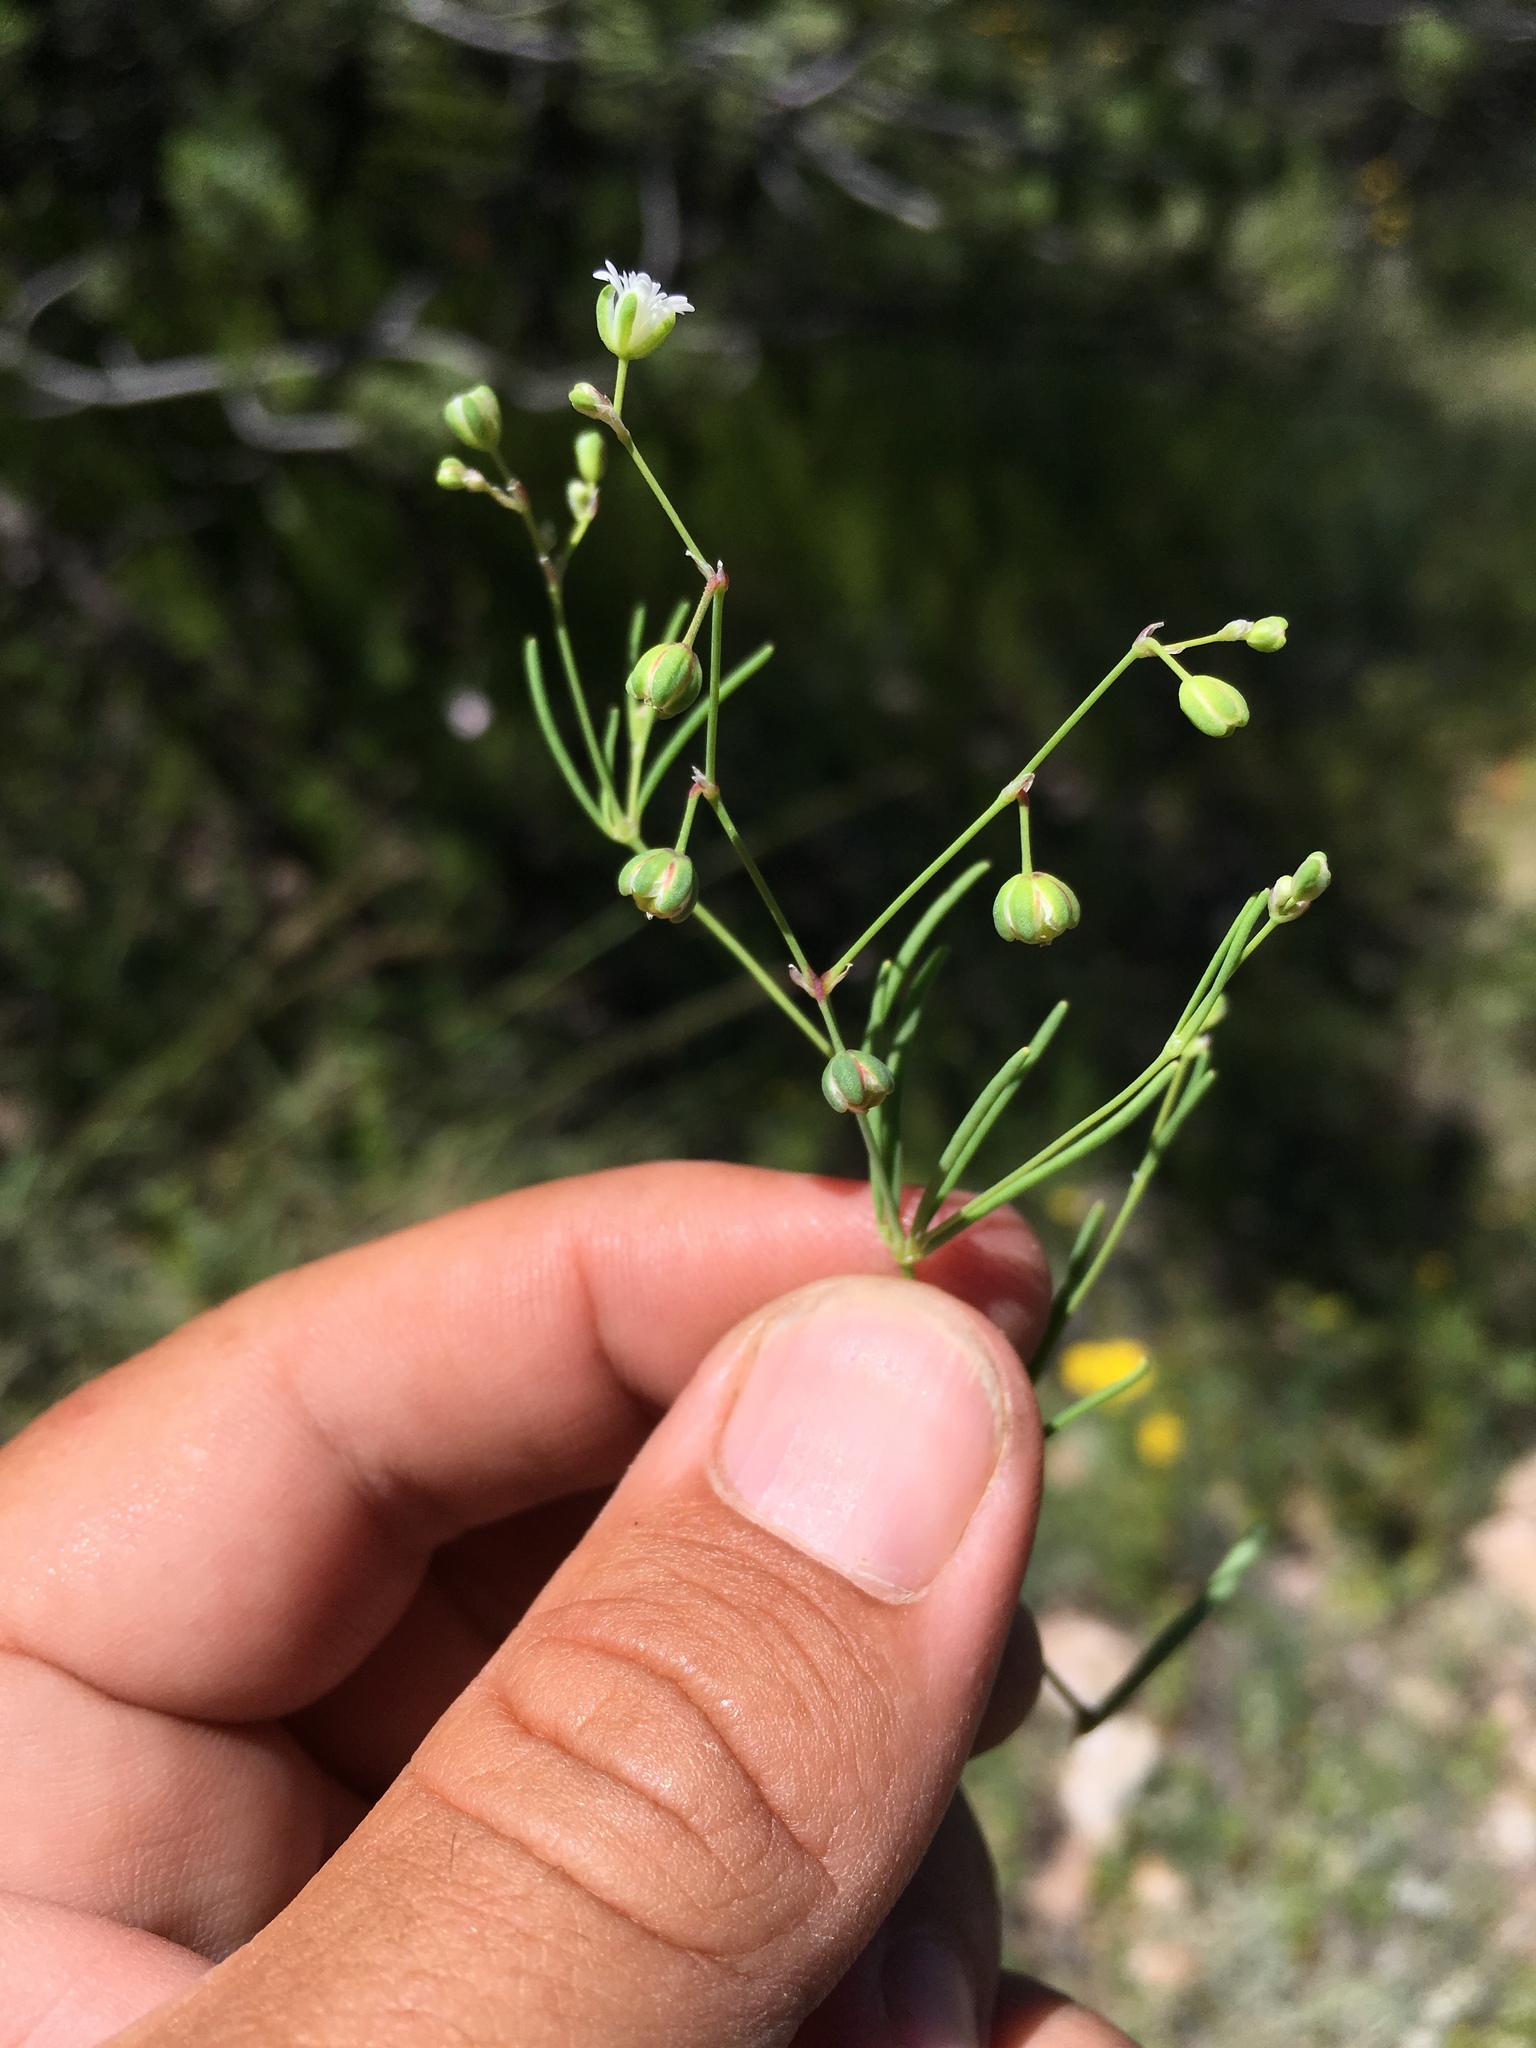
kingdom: Plantae
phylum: Tracheophyta
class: Magnoliopsida
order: Caryophyllales
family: Caryophyllaceae
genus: Drymaria
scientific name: Drymaria molluginea
